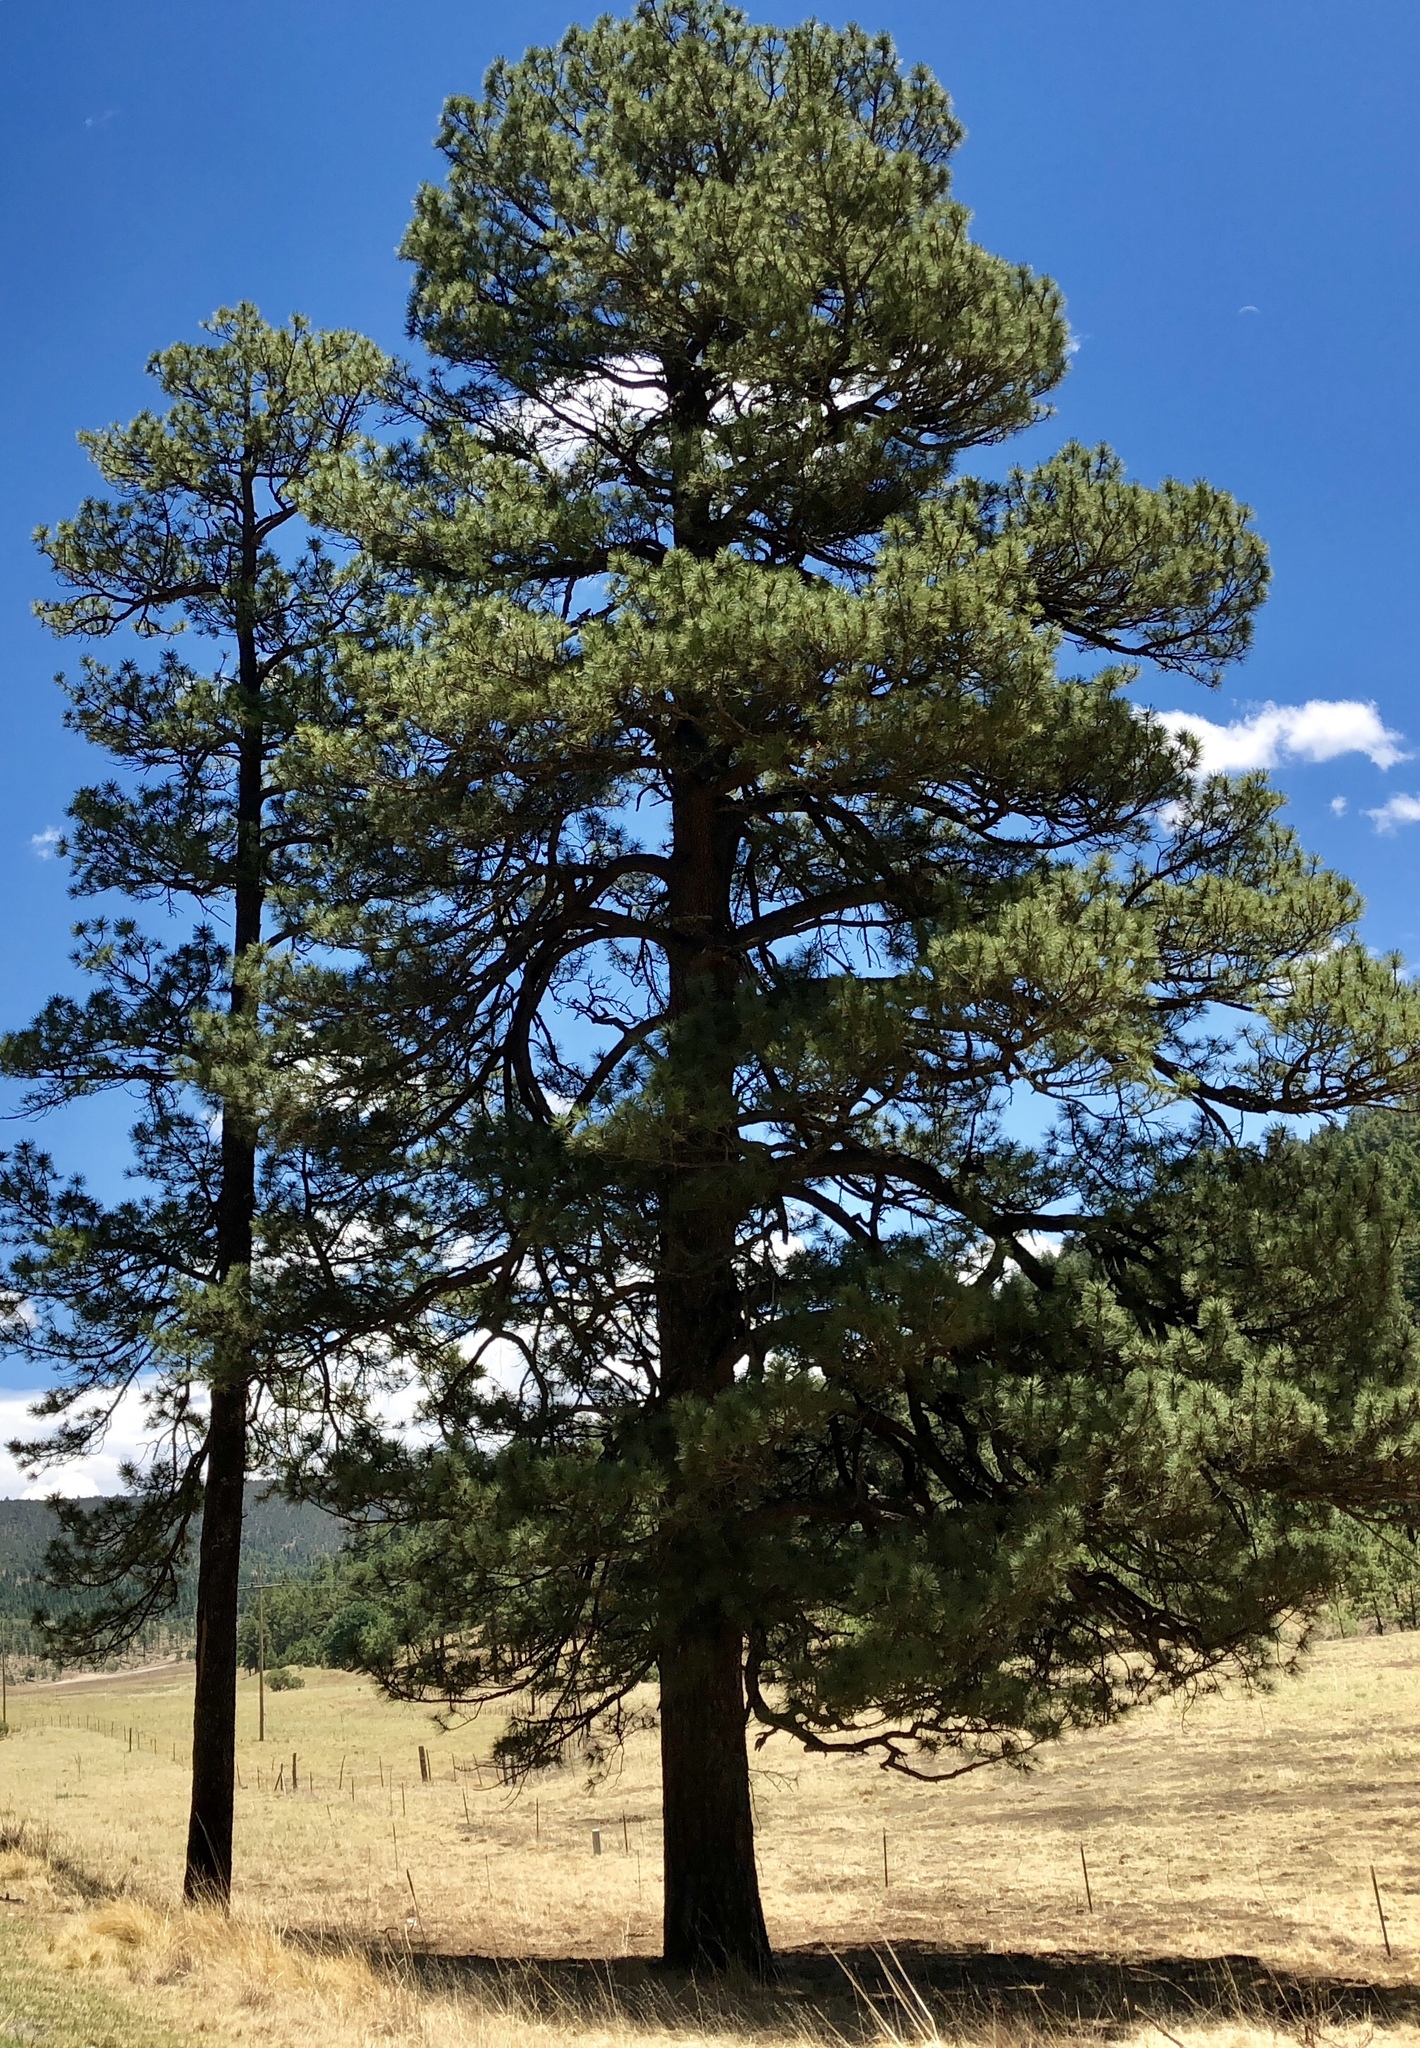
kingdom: Plantae
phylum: Tracheophyta
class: Pinopsida
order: Pinales
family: Pinaceae
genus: Pinus
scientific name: Pinus ponderosa
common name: Western yellow-pine
